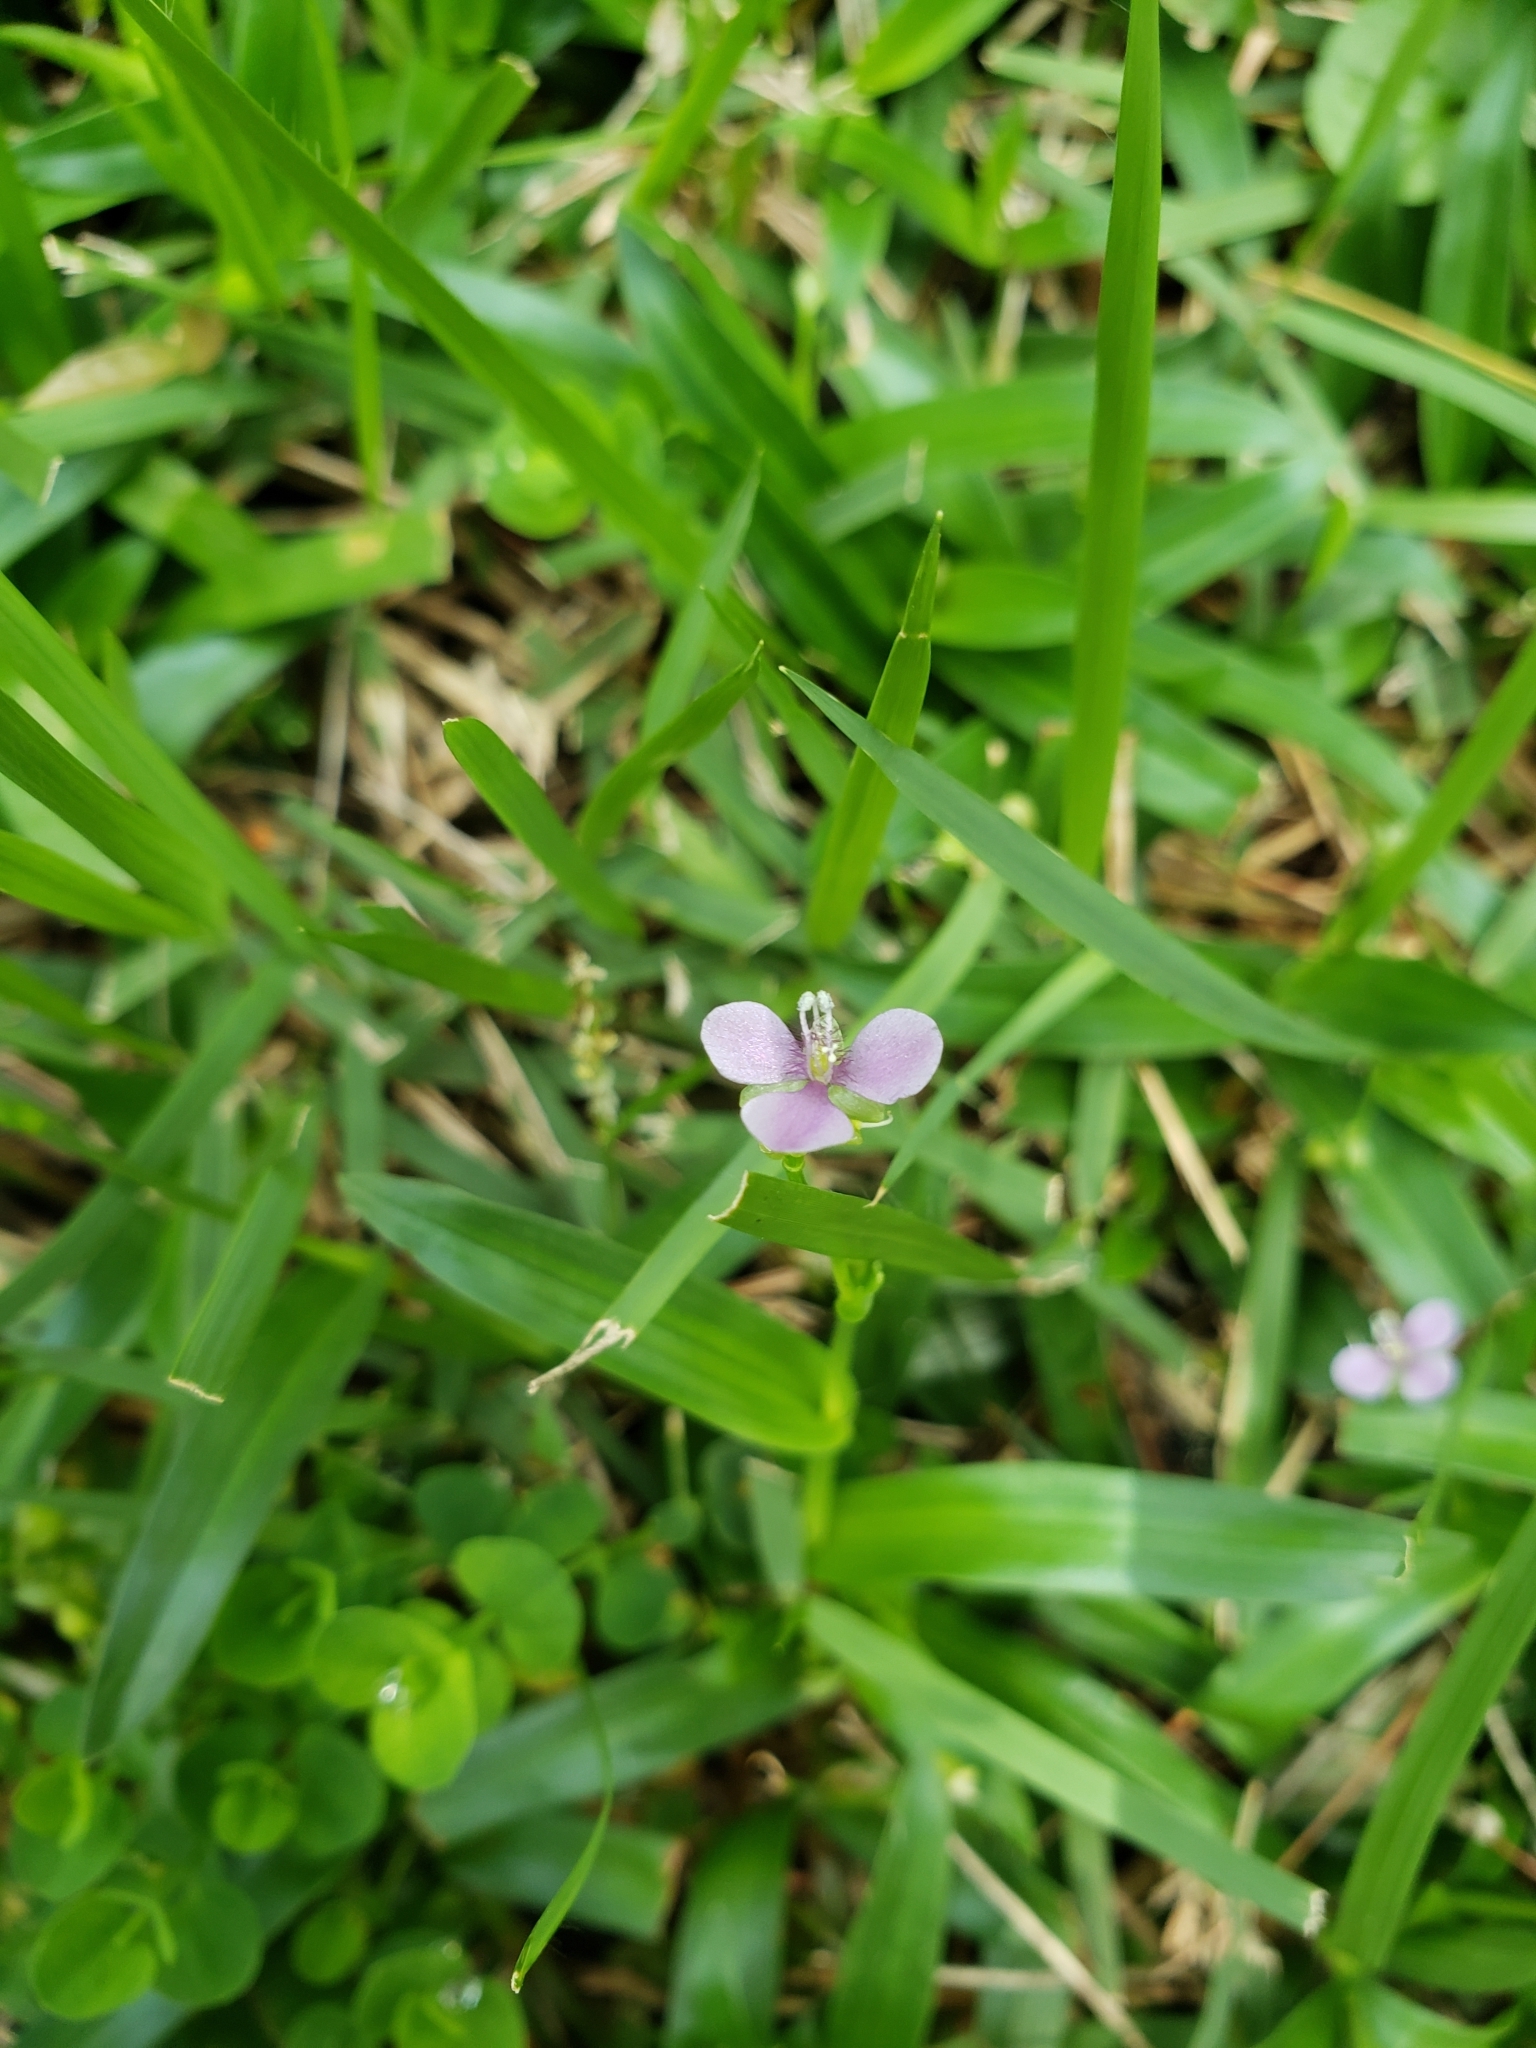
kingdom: Plantae
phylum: Tracheophyta
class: Liliopsida
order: Commelinales
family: Commelinaceae
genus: Murdannia
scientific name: Murdannia nudiflora
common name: Nakedstem dewflower
